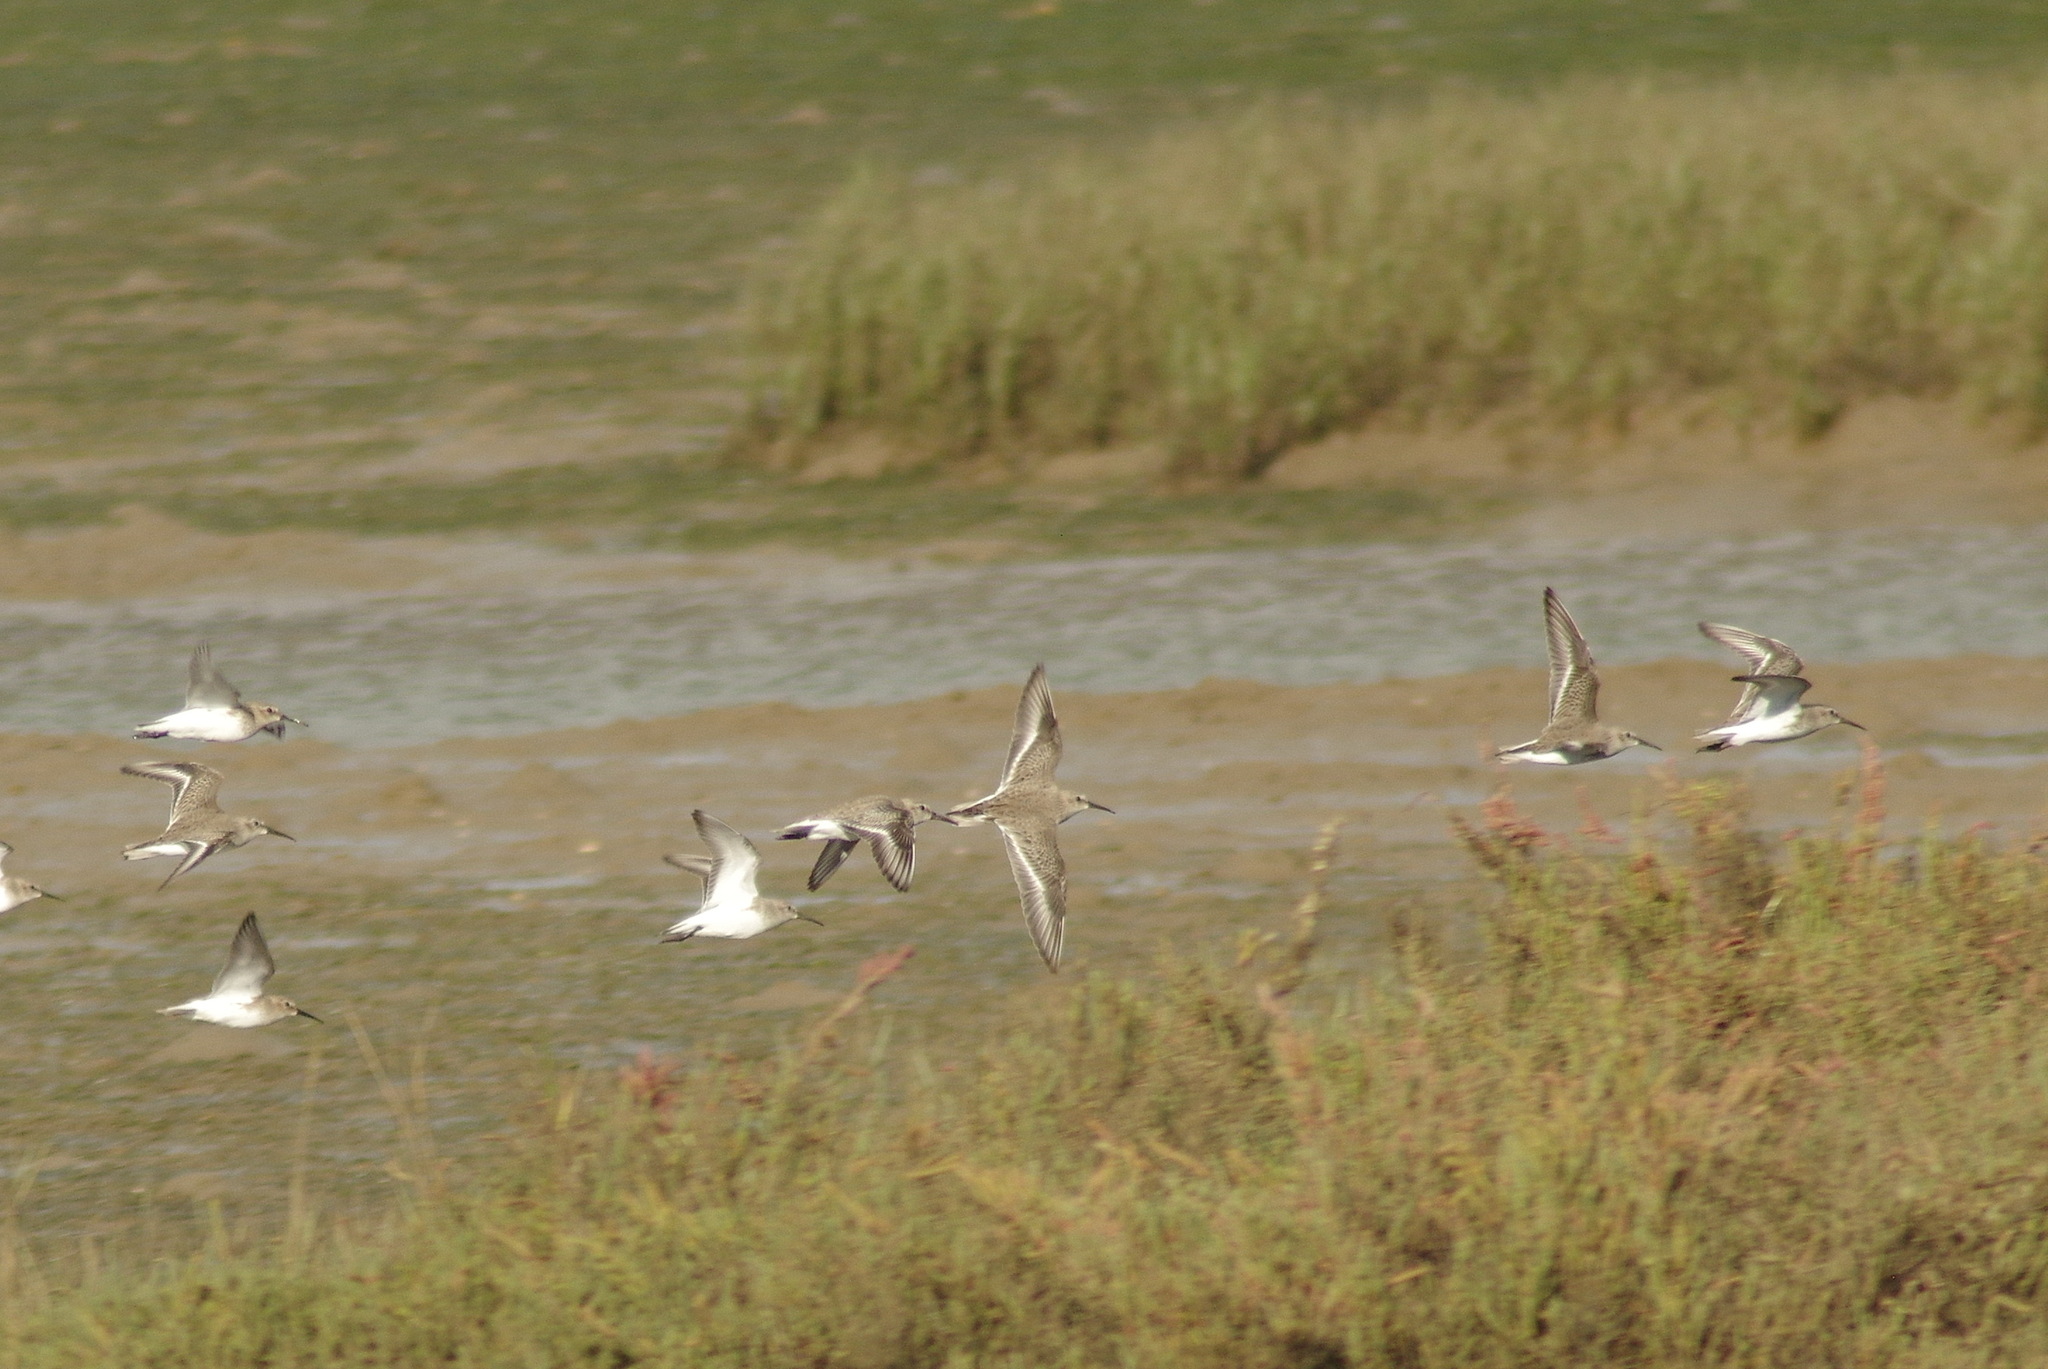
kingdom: Animalia
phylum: Chordata
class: Aves
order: Charadriiformes
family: Scolopacidae
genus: Calidris
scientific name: Calidris alpina
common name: Dunlin
